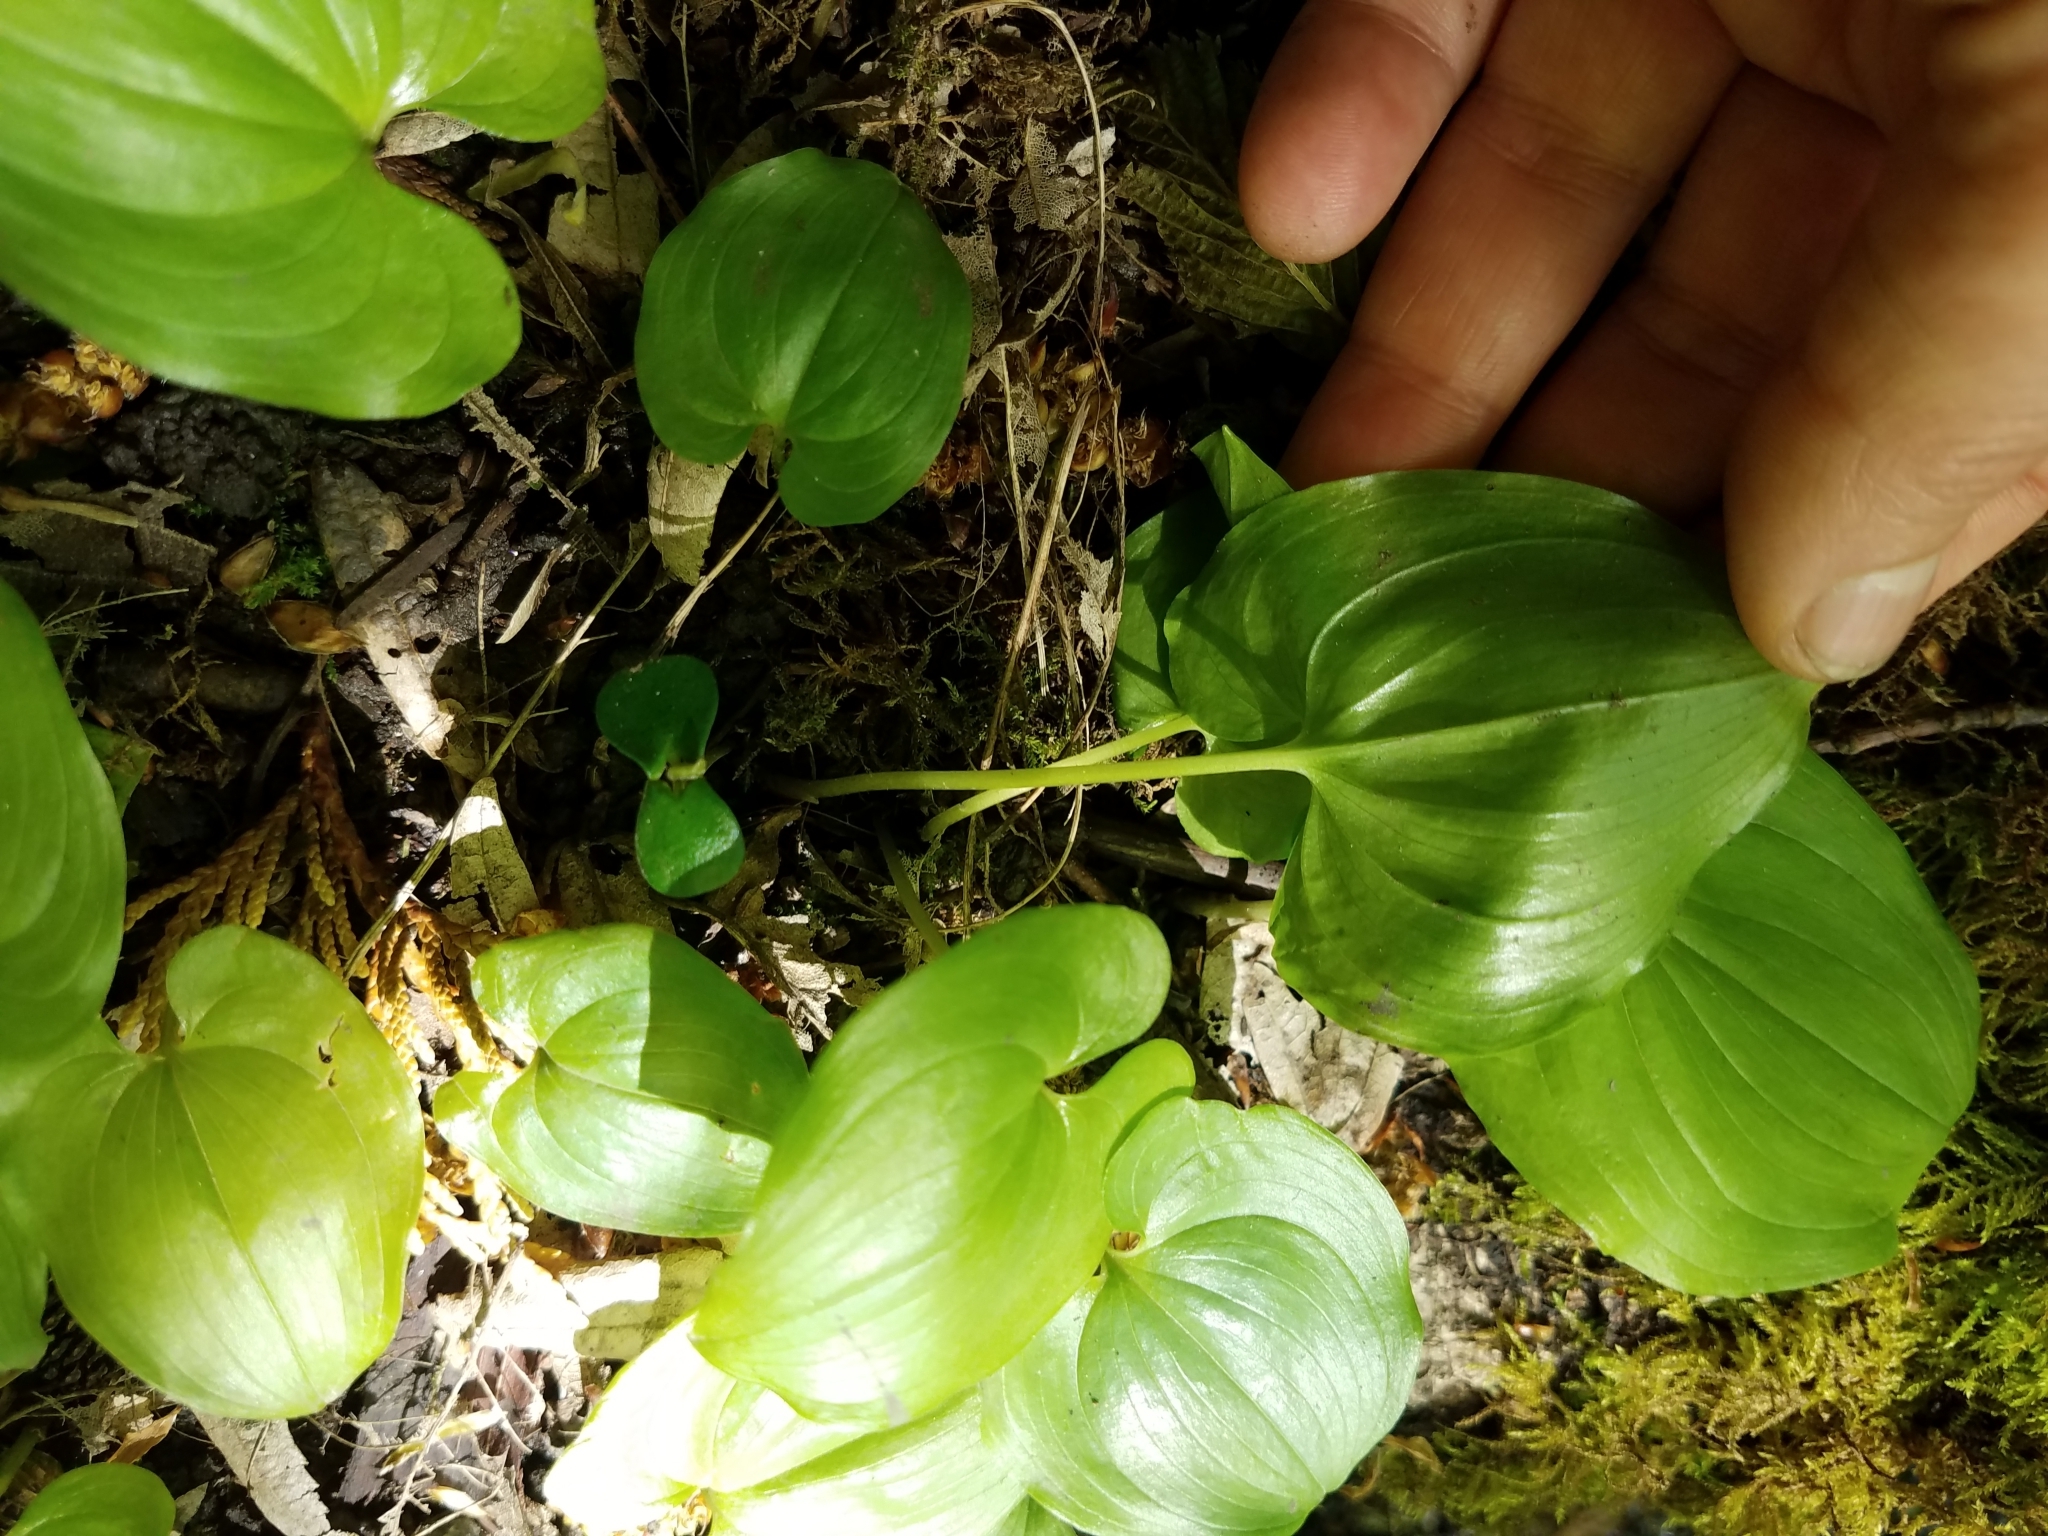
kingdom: Plantae
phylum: Tracheophyta
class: Liliopsida
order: Asparagales
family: Asparagaceae
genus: Maianthemum
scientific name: Maianthemum dilatatum
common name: False lily-of-the-valley
